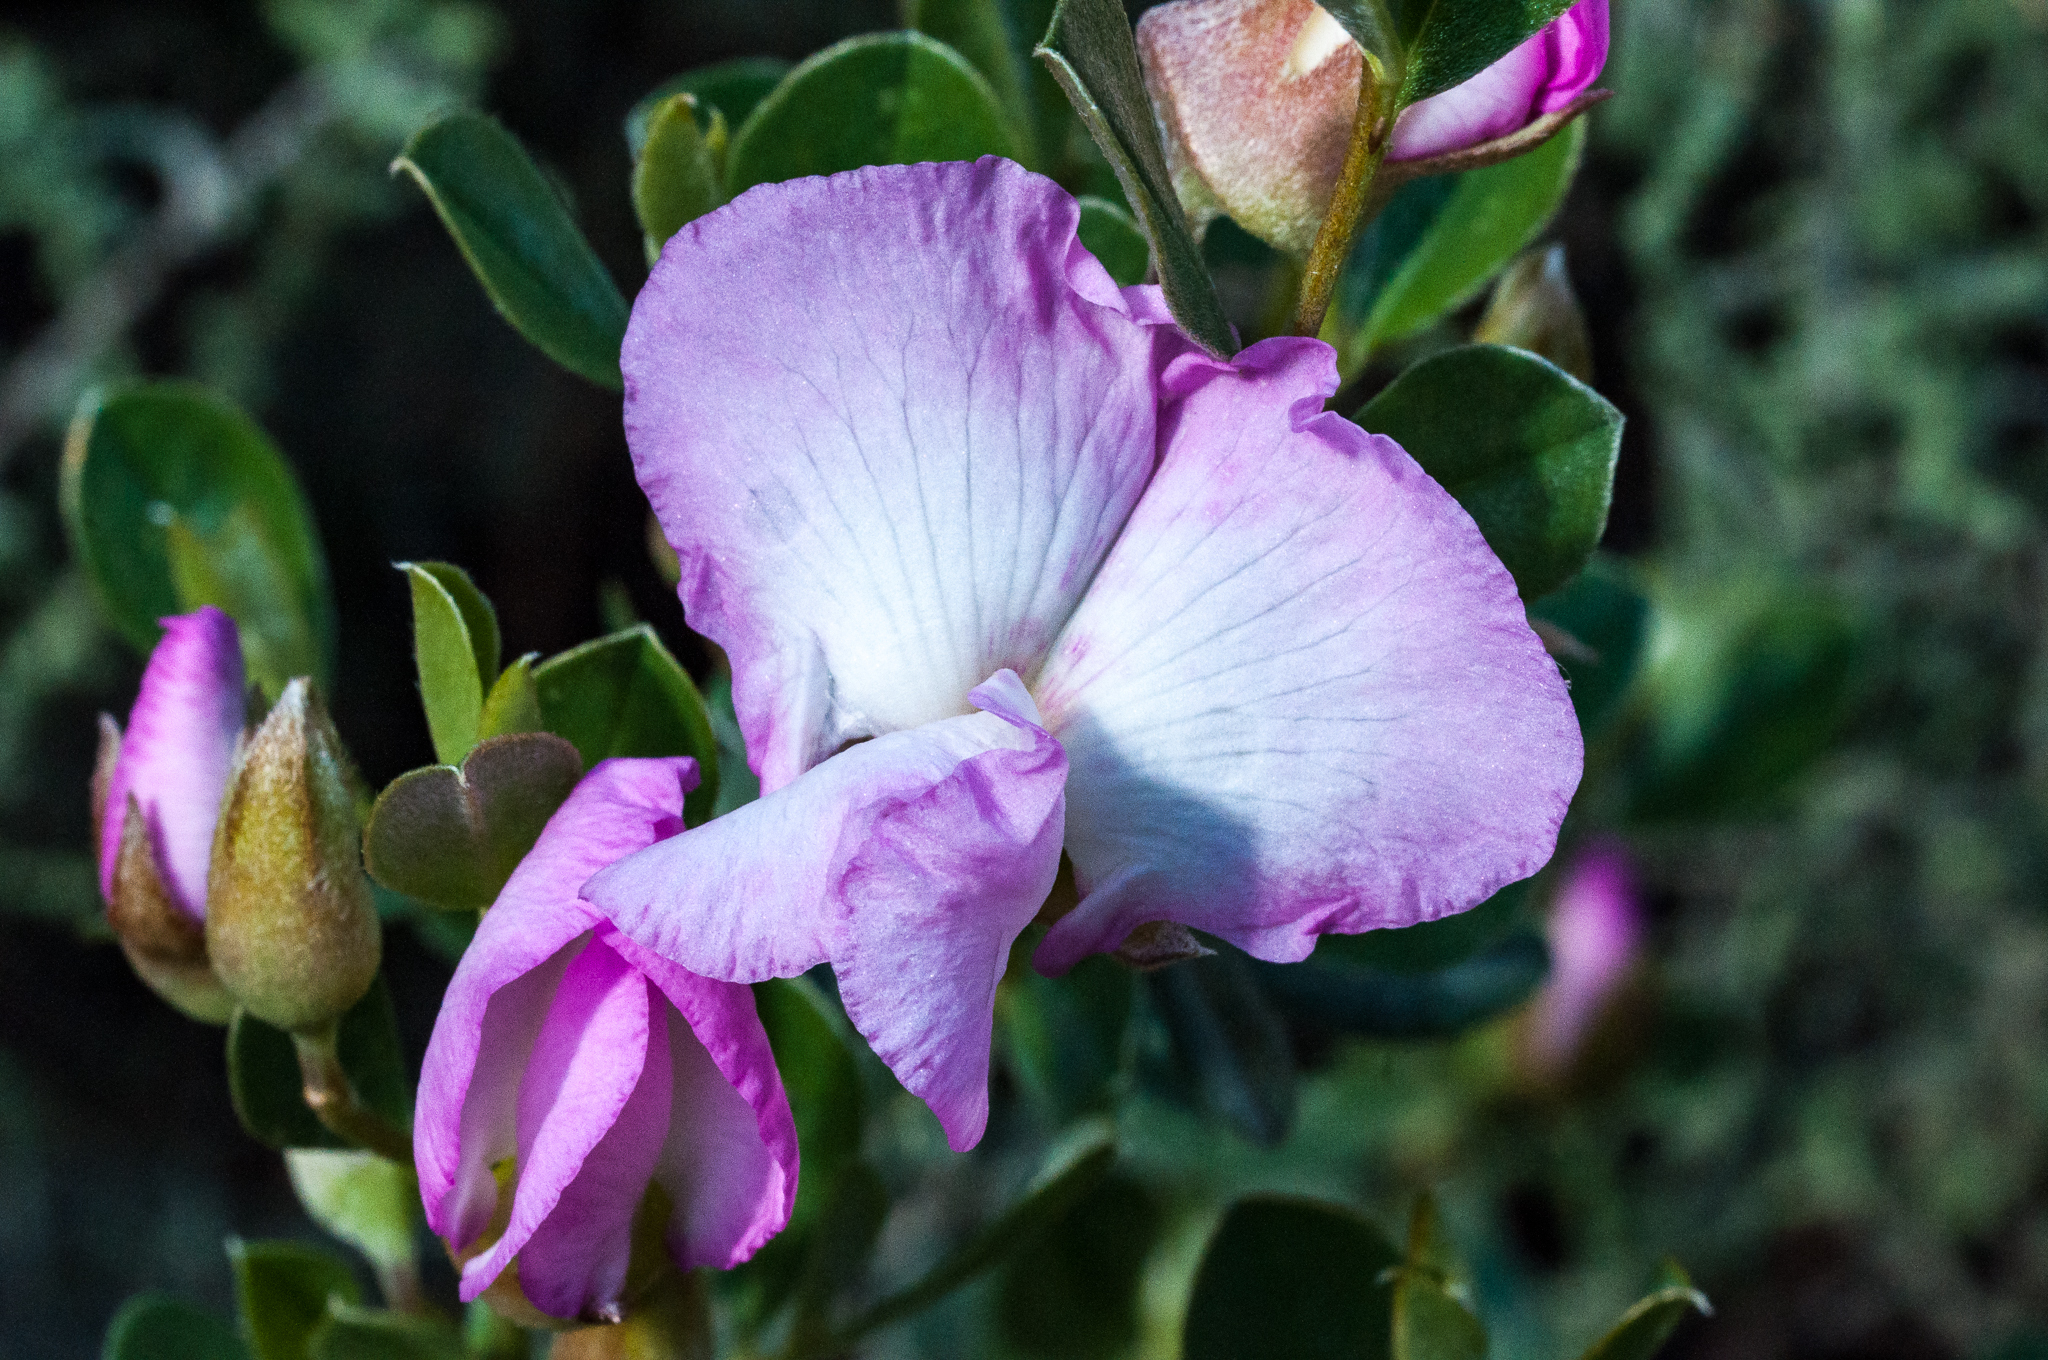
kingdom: Plantae
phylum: Tracheophyta
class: Magnoliopsida
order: Fabales
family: Fabaceae
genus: Podalyria
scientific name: Podalyria leipoldtii
